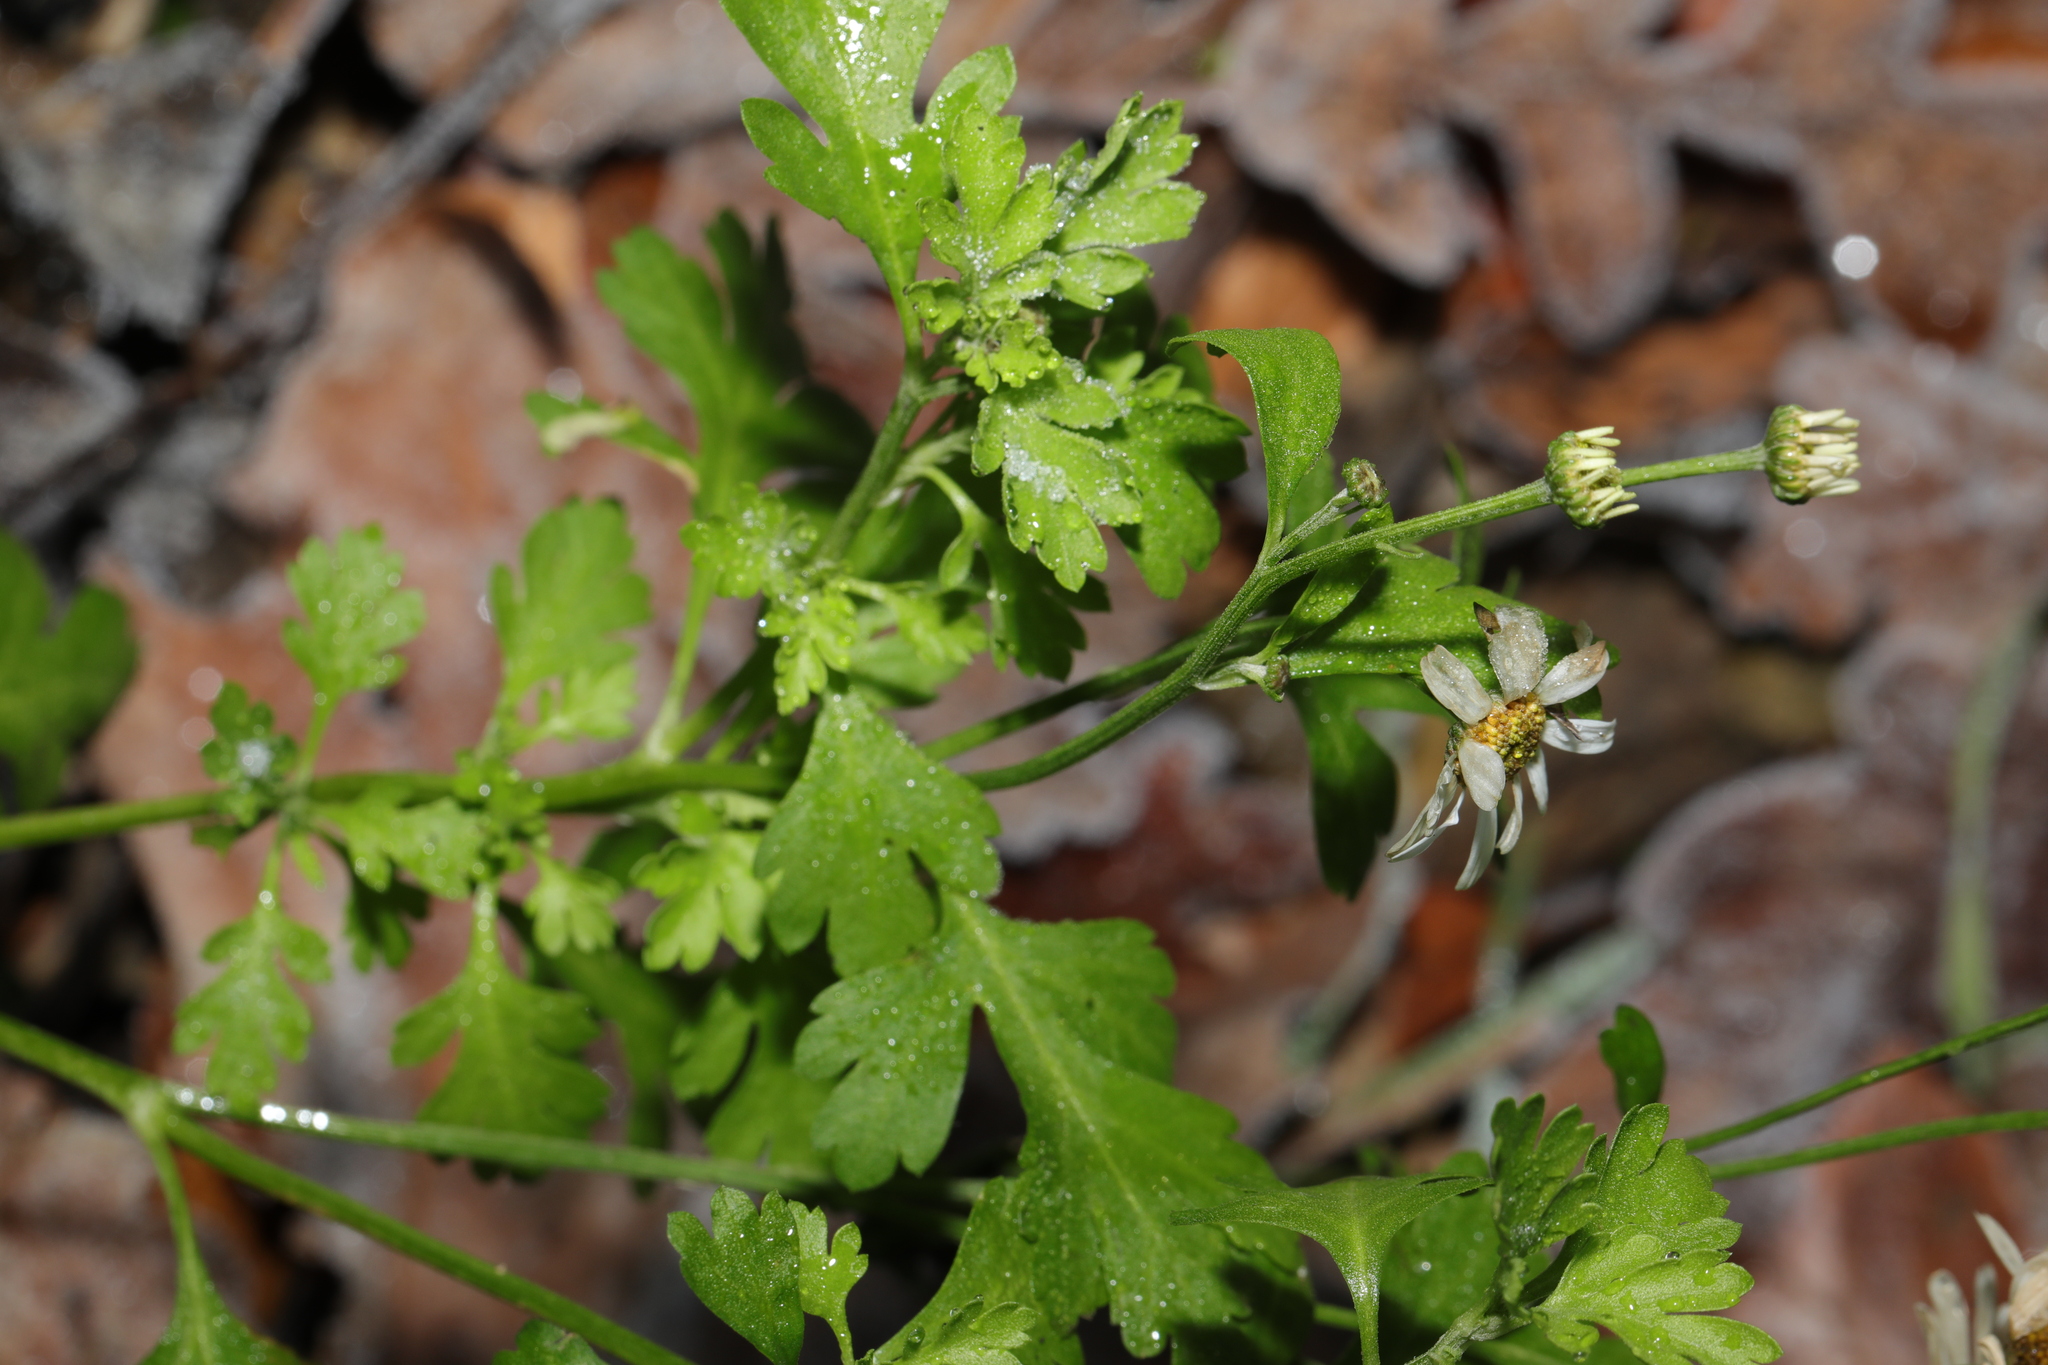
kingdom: Plantae
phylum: Tracheophyta
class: Magnoliopsida
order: Asterales
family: Asteraceae
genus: Tanacetum
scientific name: Tanacetum parthenium
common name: Feverfew
